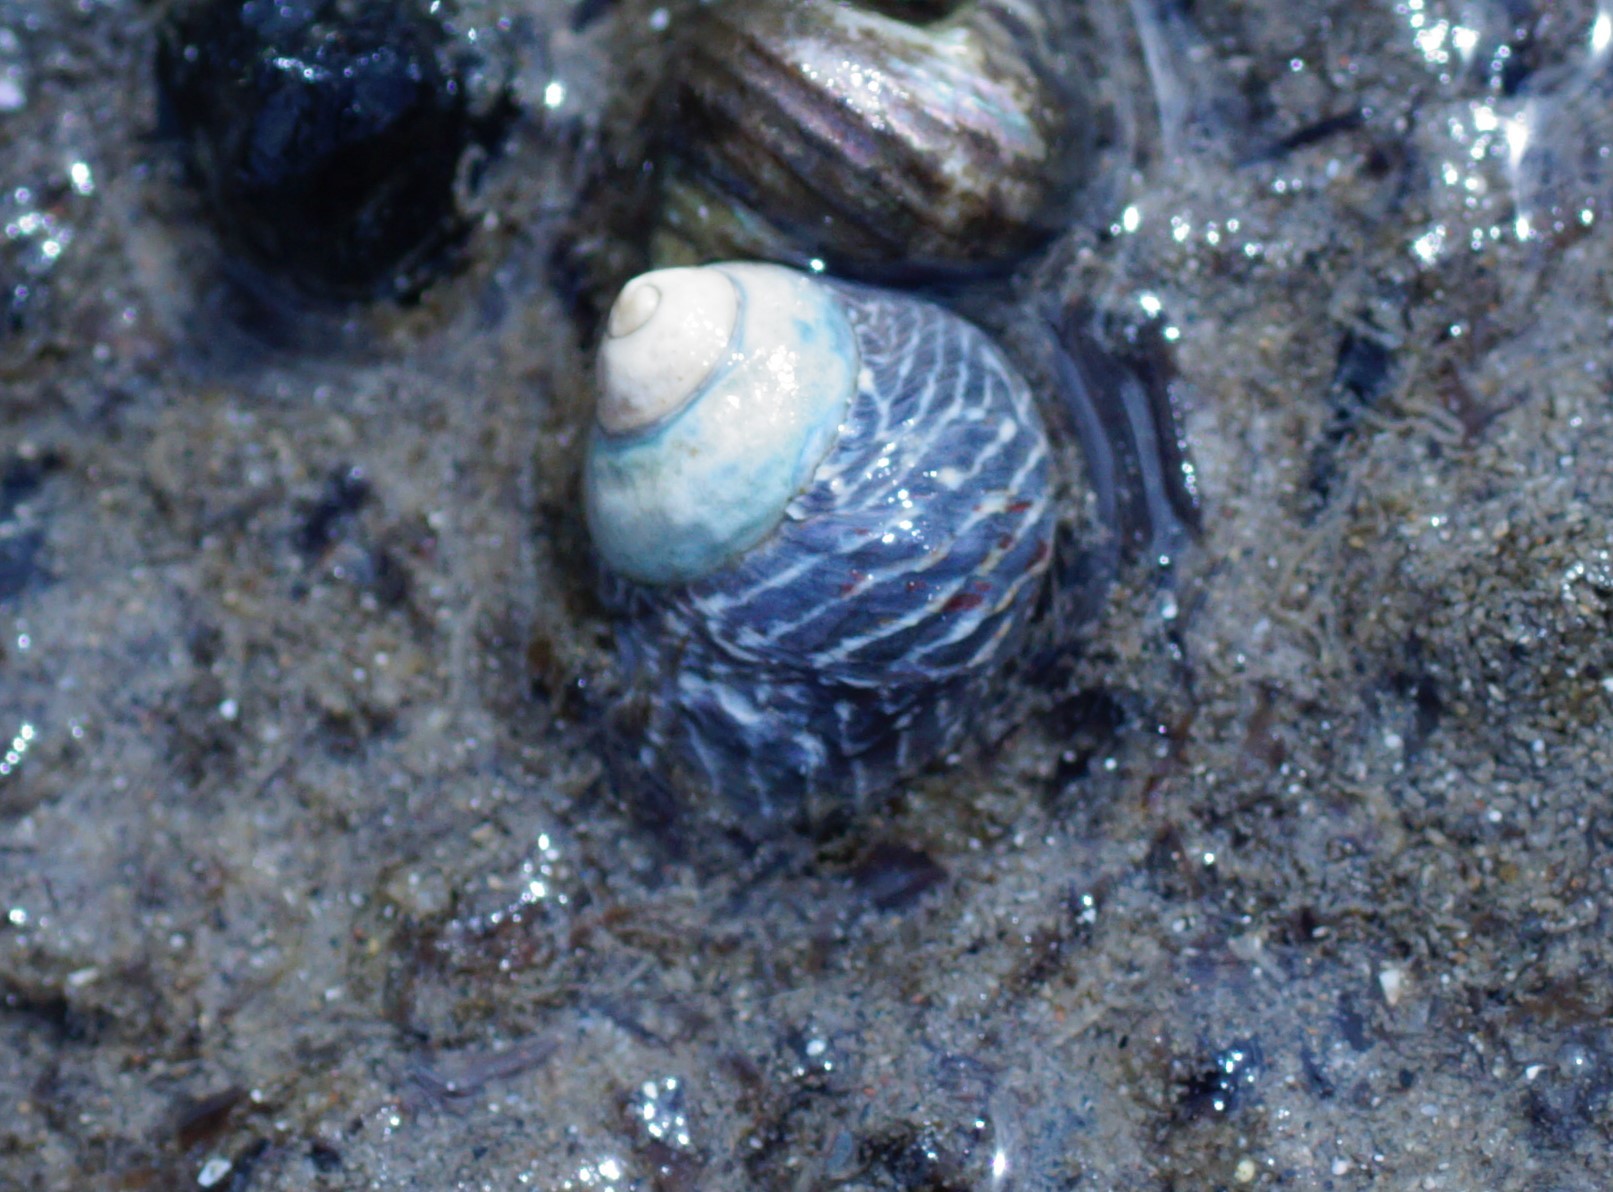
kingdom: Animalia
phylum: Mollusca
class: Gastropoda
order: Trochida
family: Trochidae
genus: Austrocochlea
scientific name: Austrocochlea porcata
